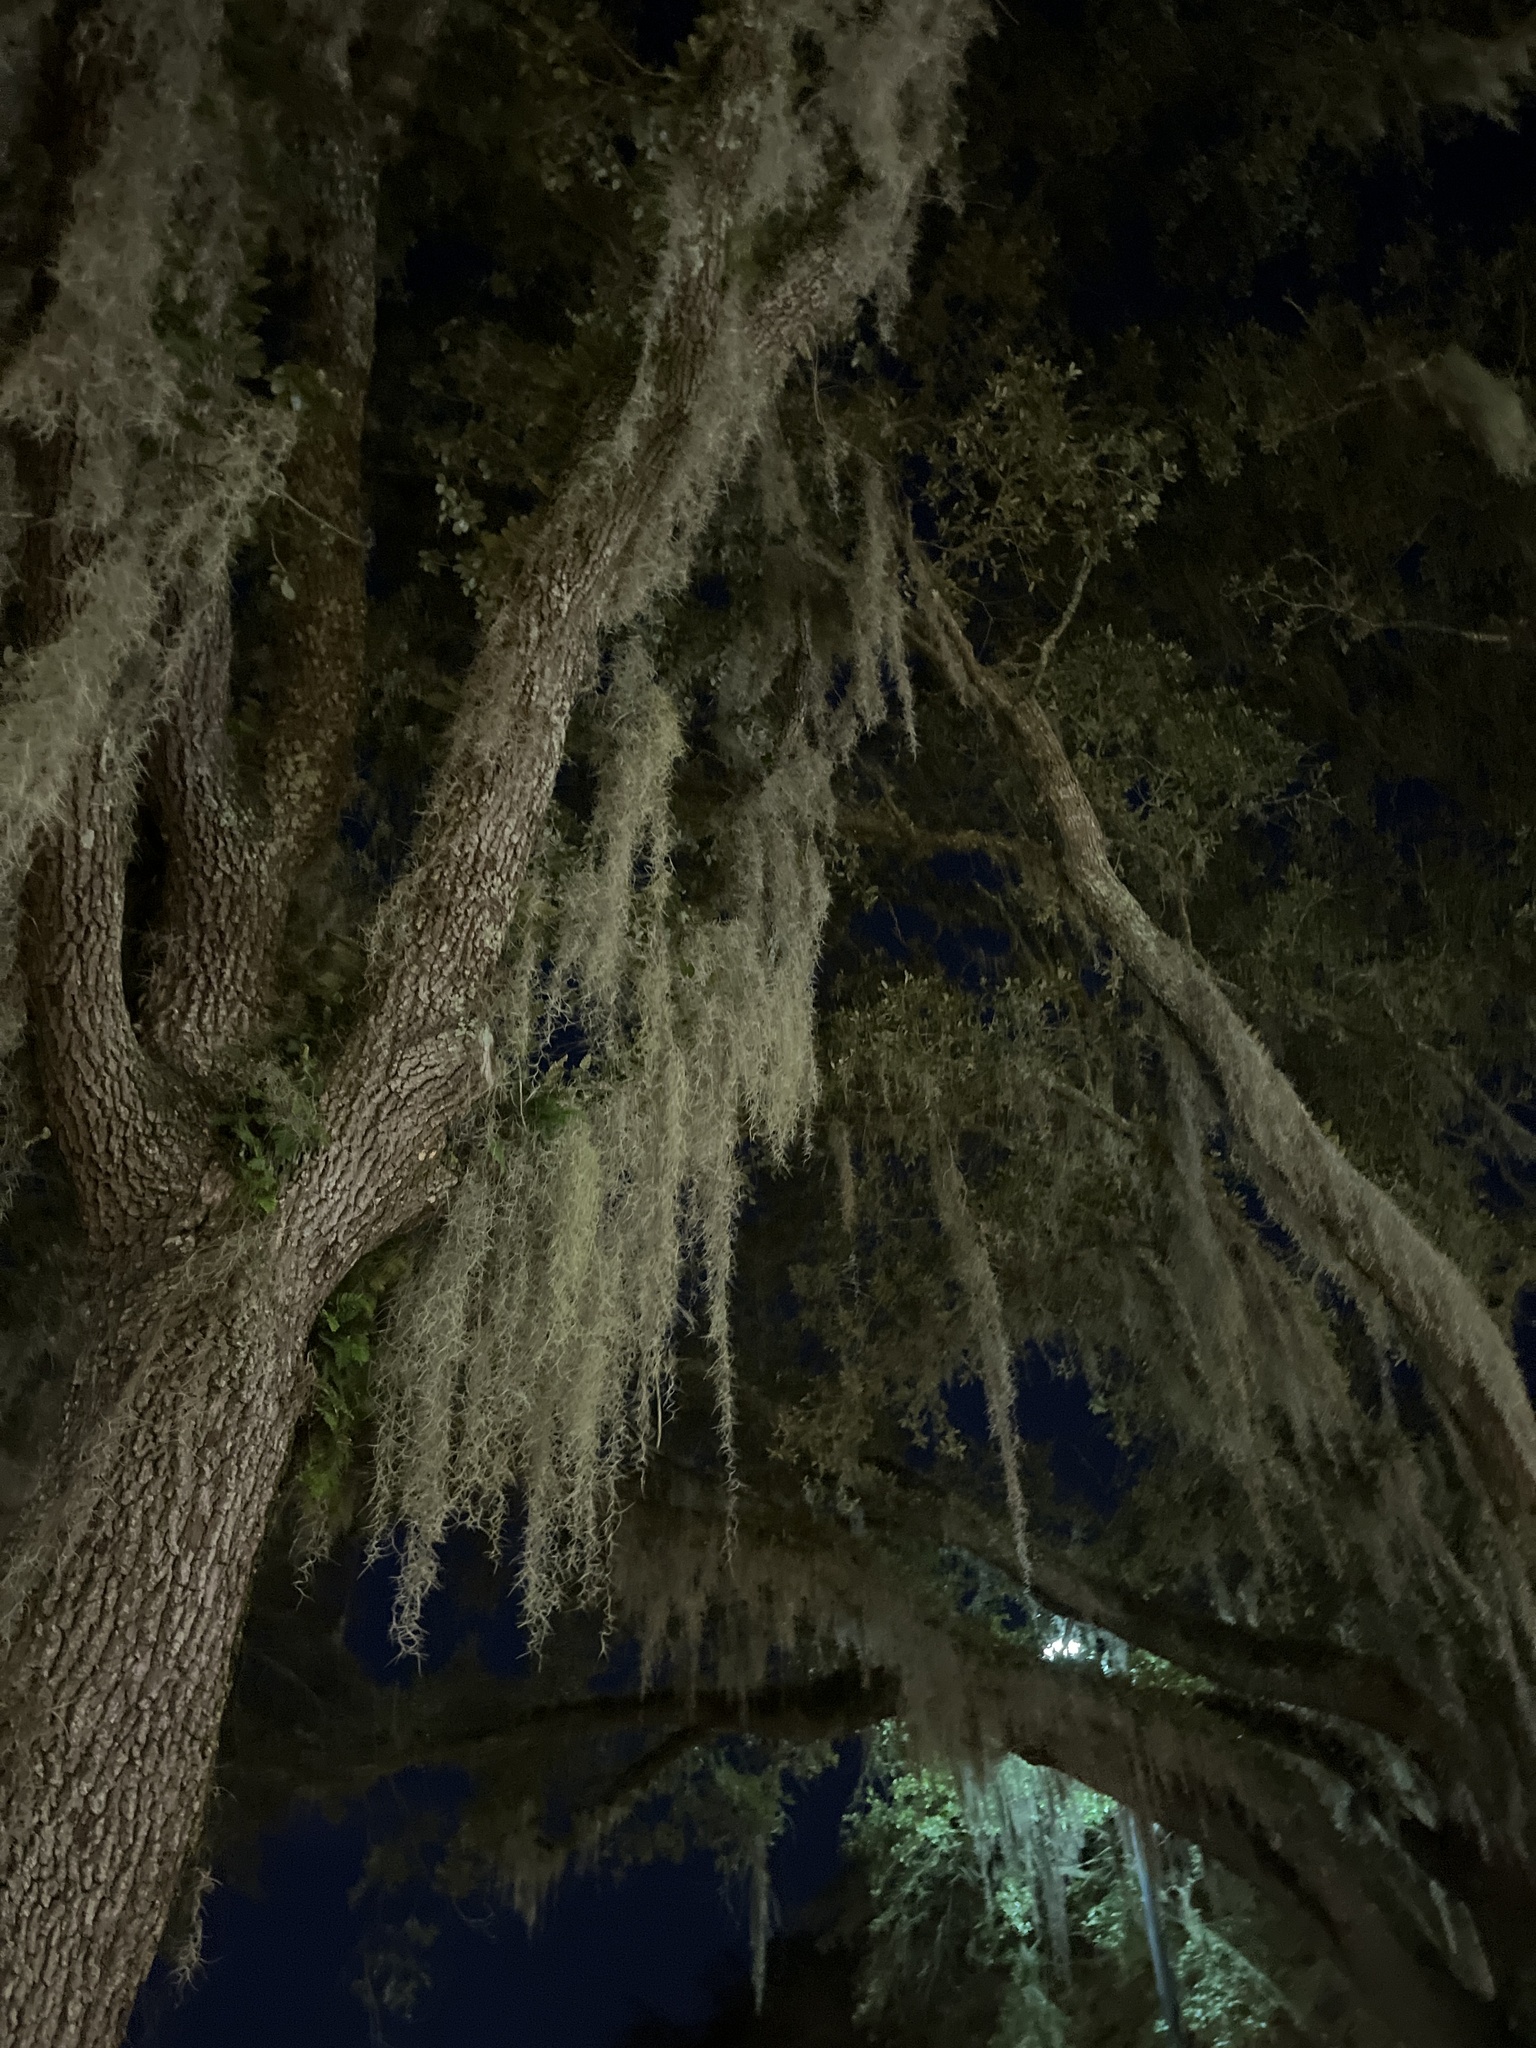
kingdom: Plantae
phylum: Tracheophyta
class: Liliopsida
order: Poales
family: Bromeliaceae
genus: Tillandsia
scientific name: Tillandsia usneoides
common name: Spanish moss
